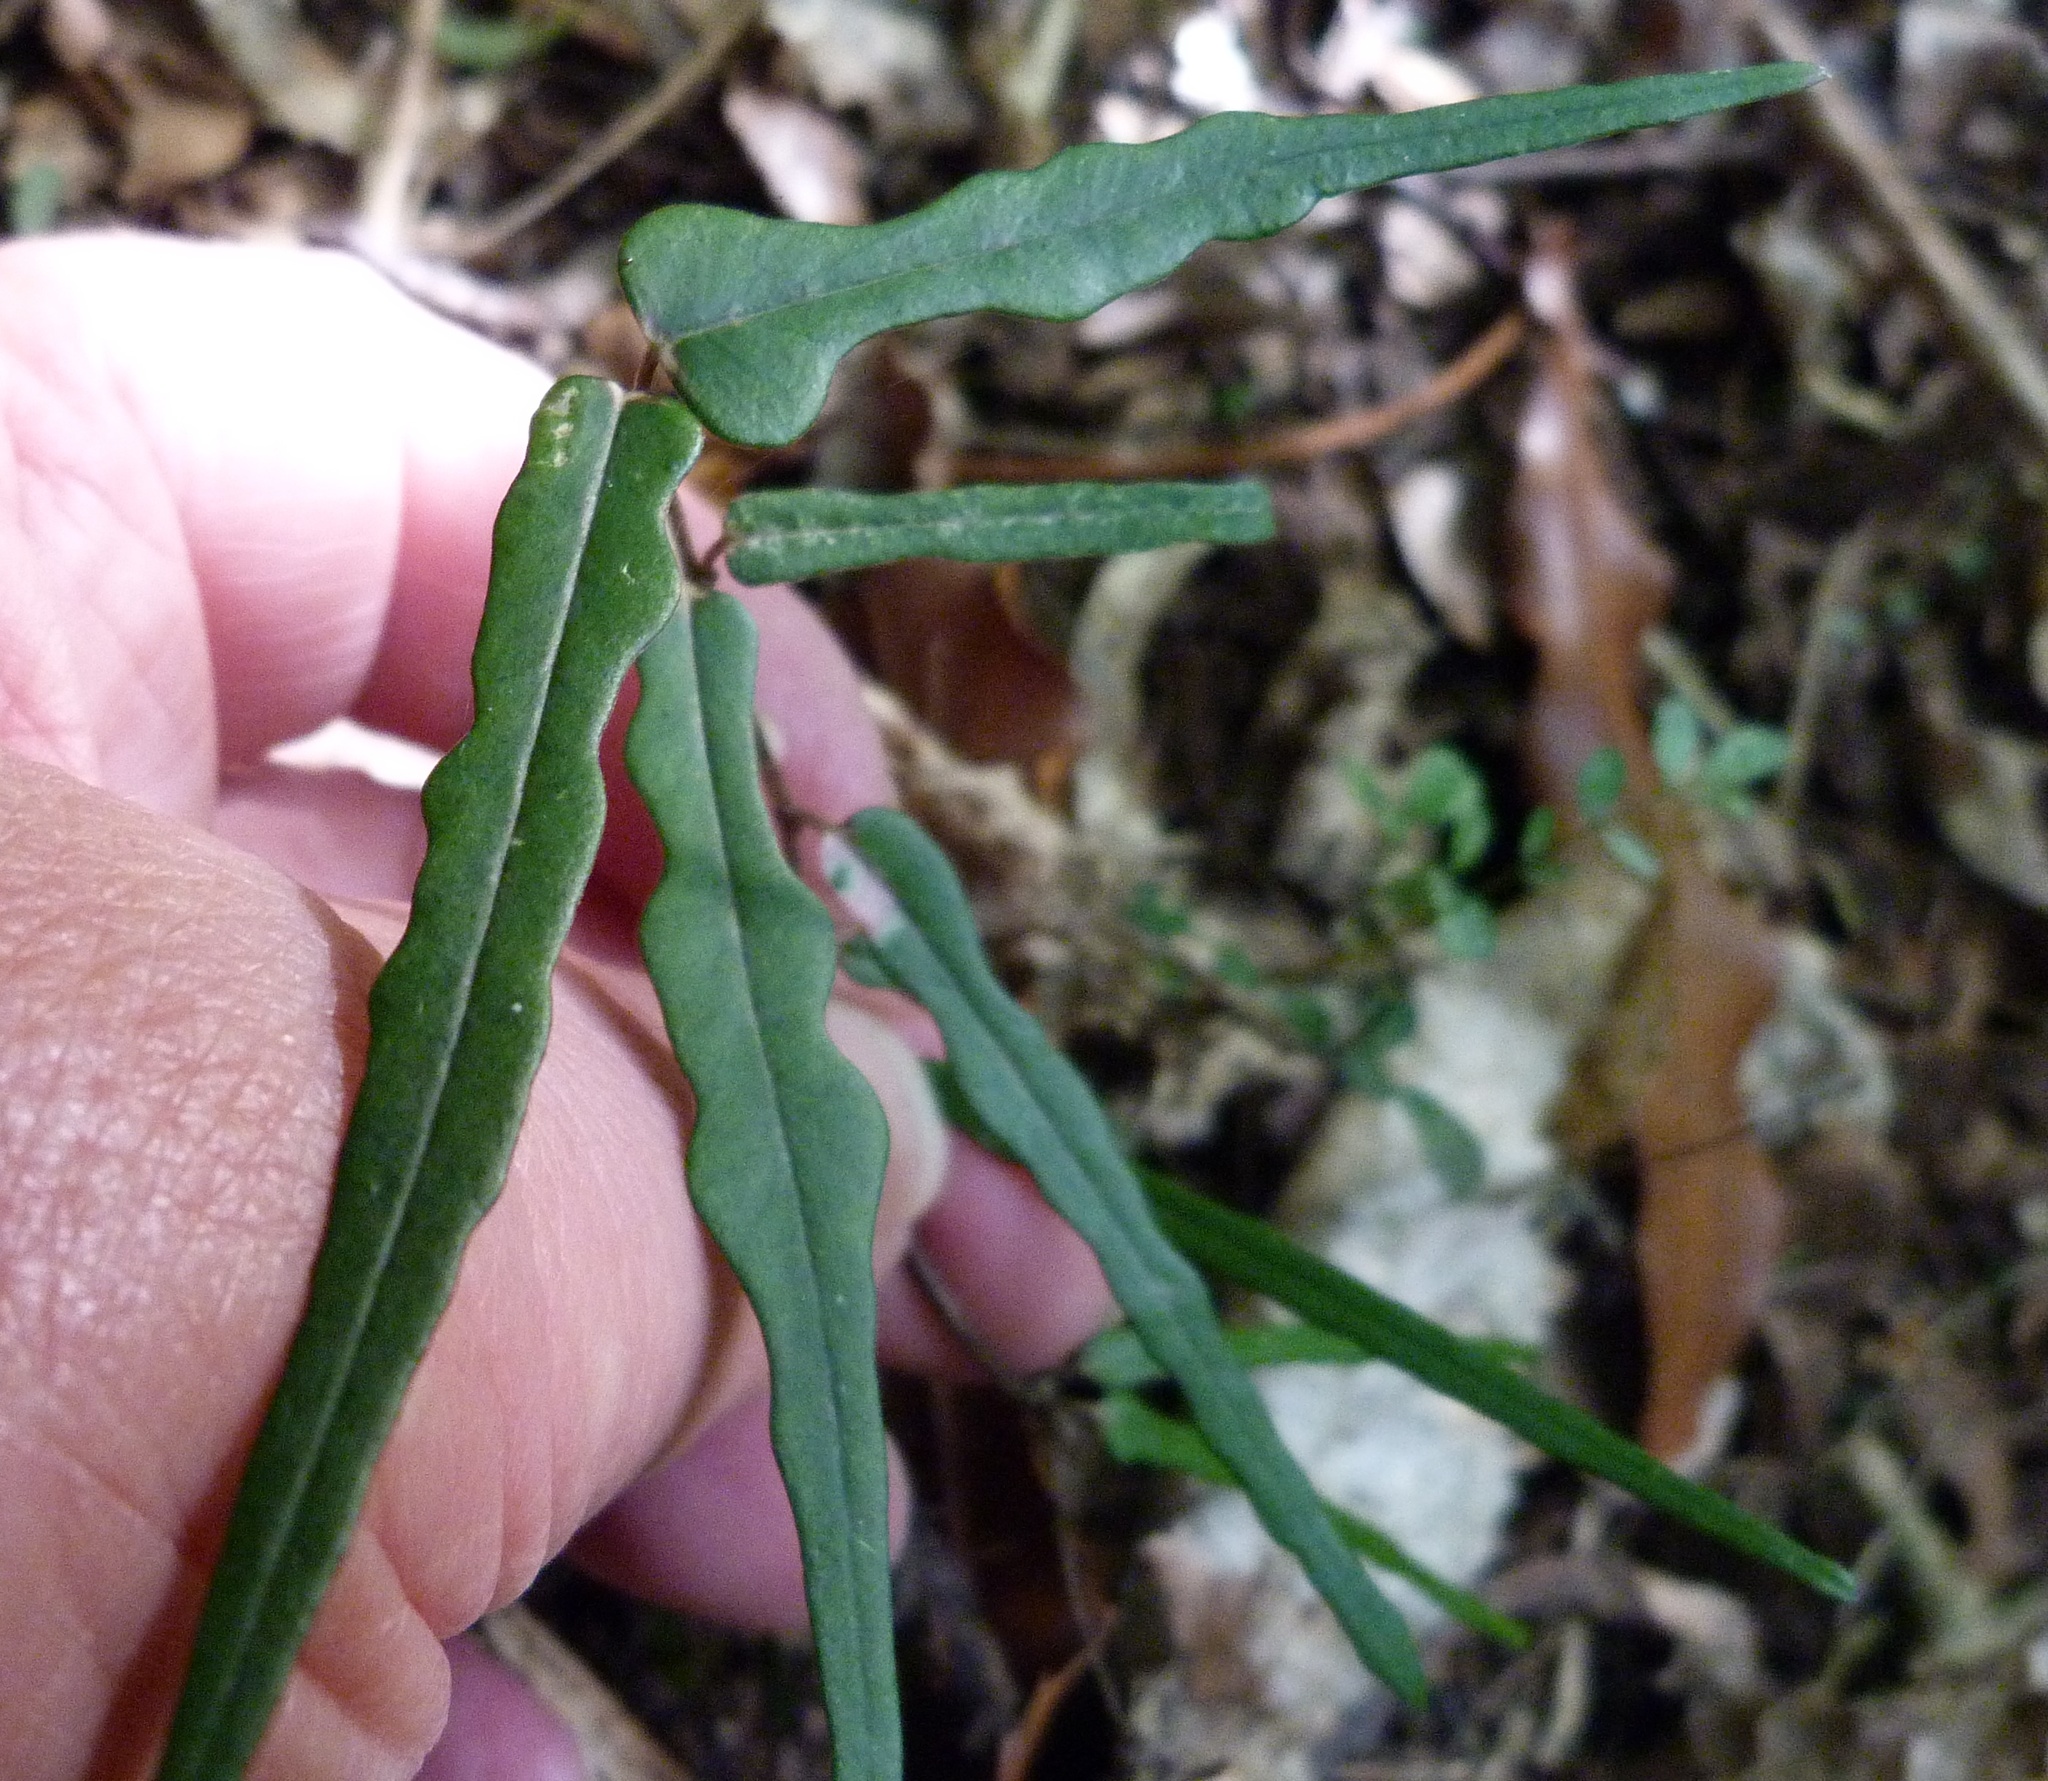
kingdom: Plantae
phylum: Tracheophyta
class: Magnoliopsida
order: Gentianales
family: Apocynaceae
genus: Parsonsia
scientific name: Parsonsia heterophylla
